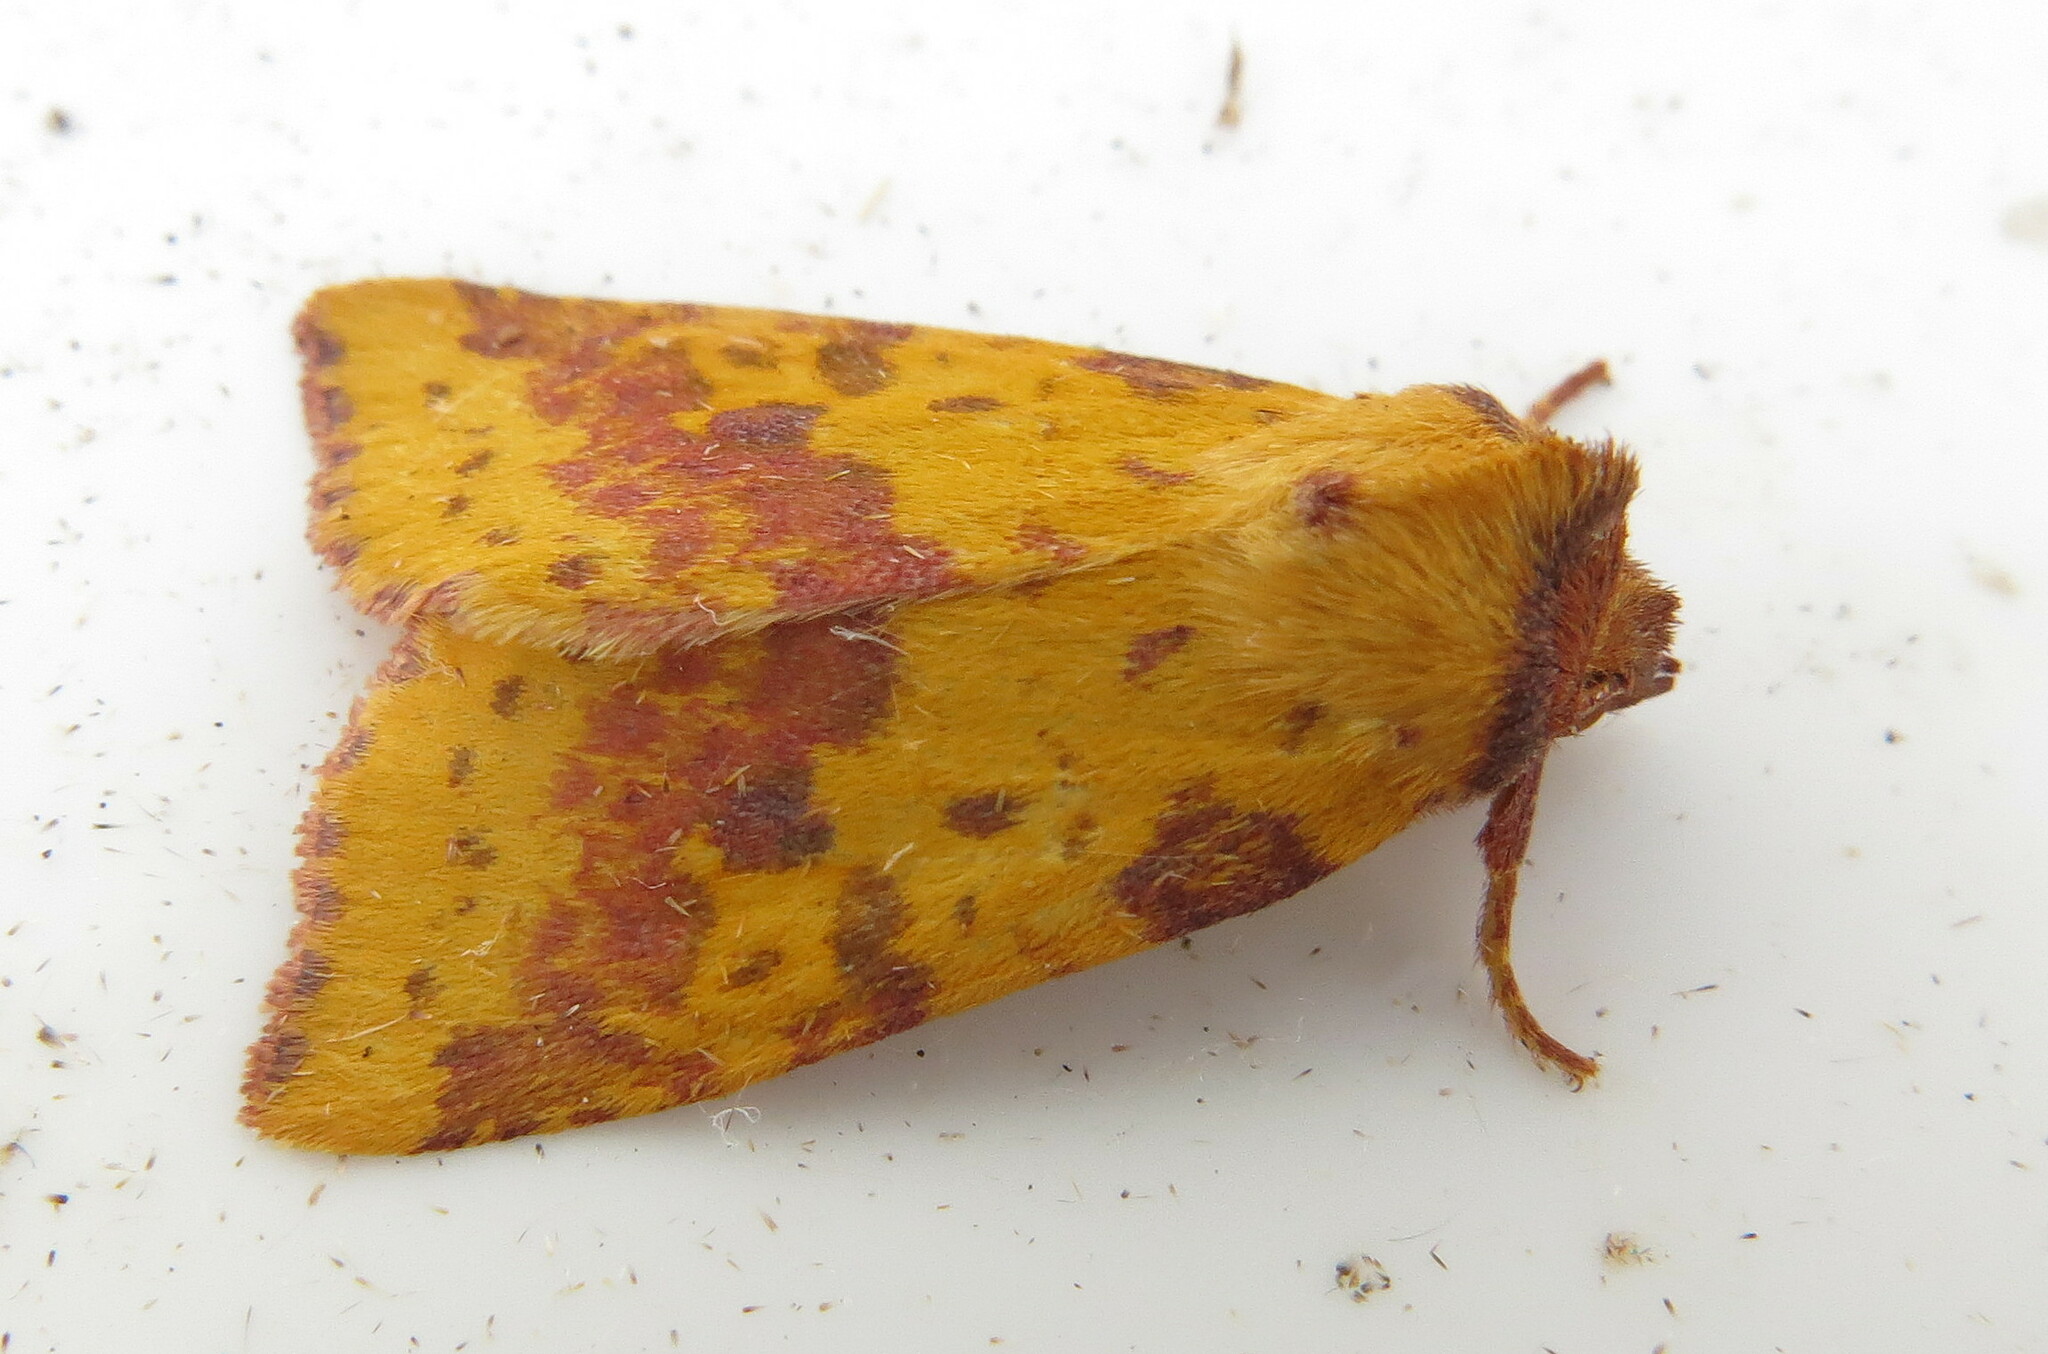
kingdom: Animalia
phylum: Arthropoda
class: Insecta
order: Lepidoptera
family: Noctuidae
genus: Xanthia
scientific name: Xanthia togata
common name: Pink-barred sallow
